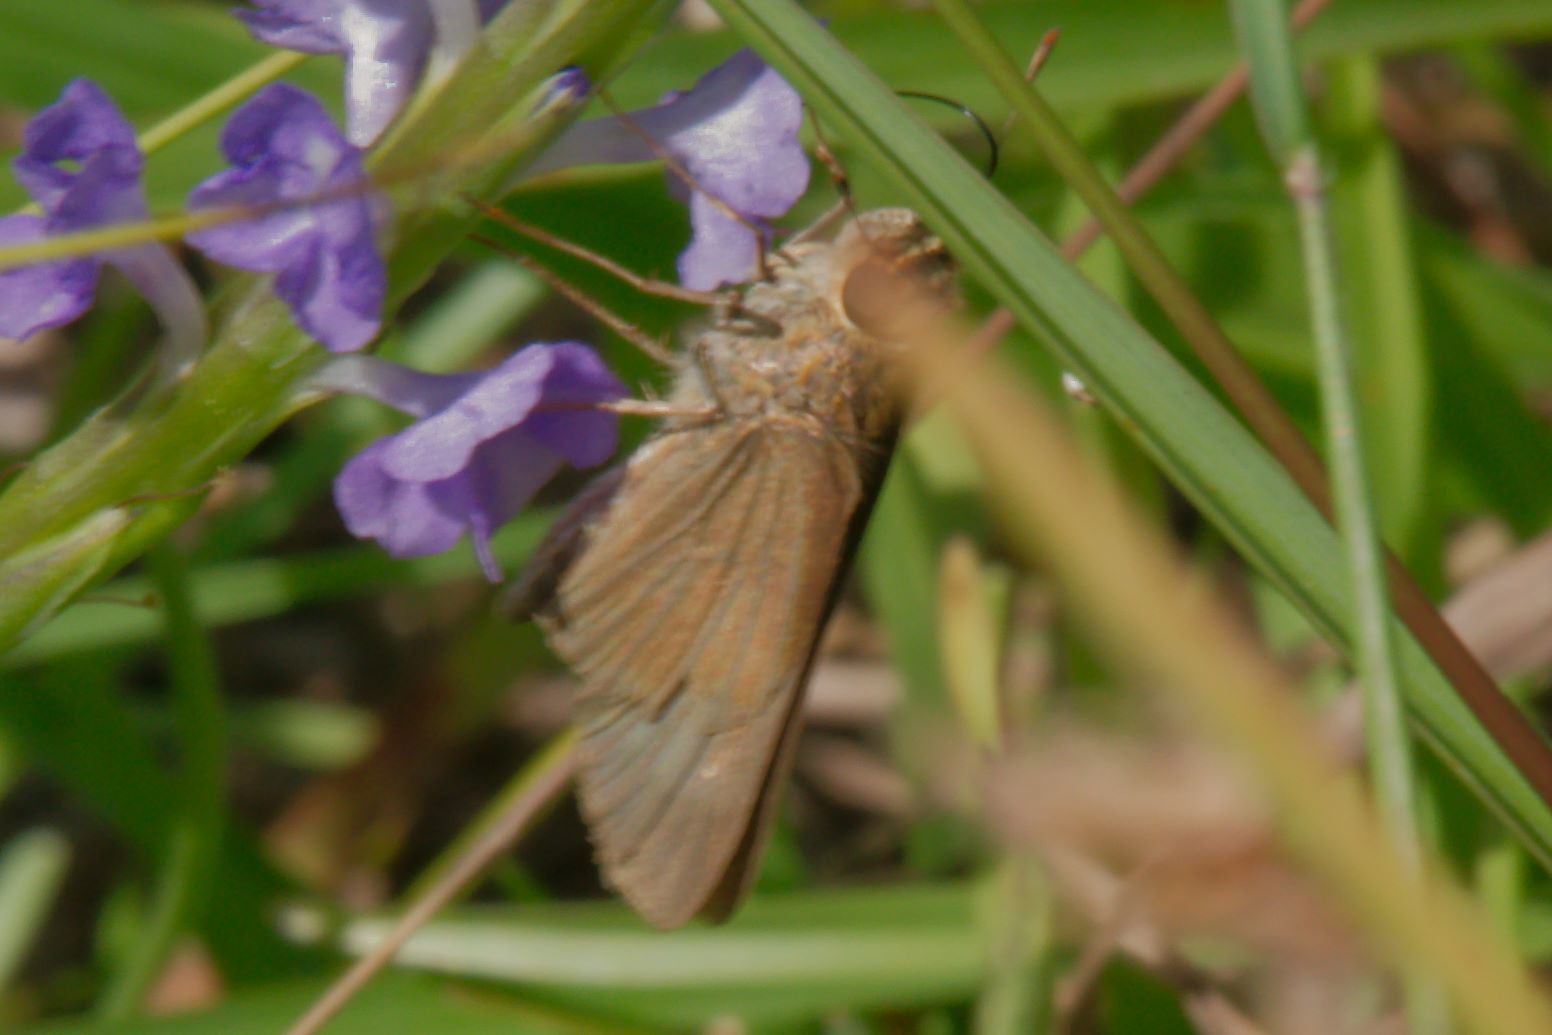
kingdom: Animalia
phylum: Arthropoda
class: Insecta
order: Lepidoptera
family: Hesperiidae
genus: Panoquina
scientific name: Panoquina ocola
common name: Ocola skipper
